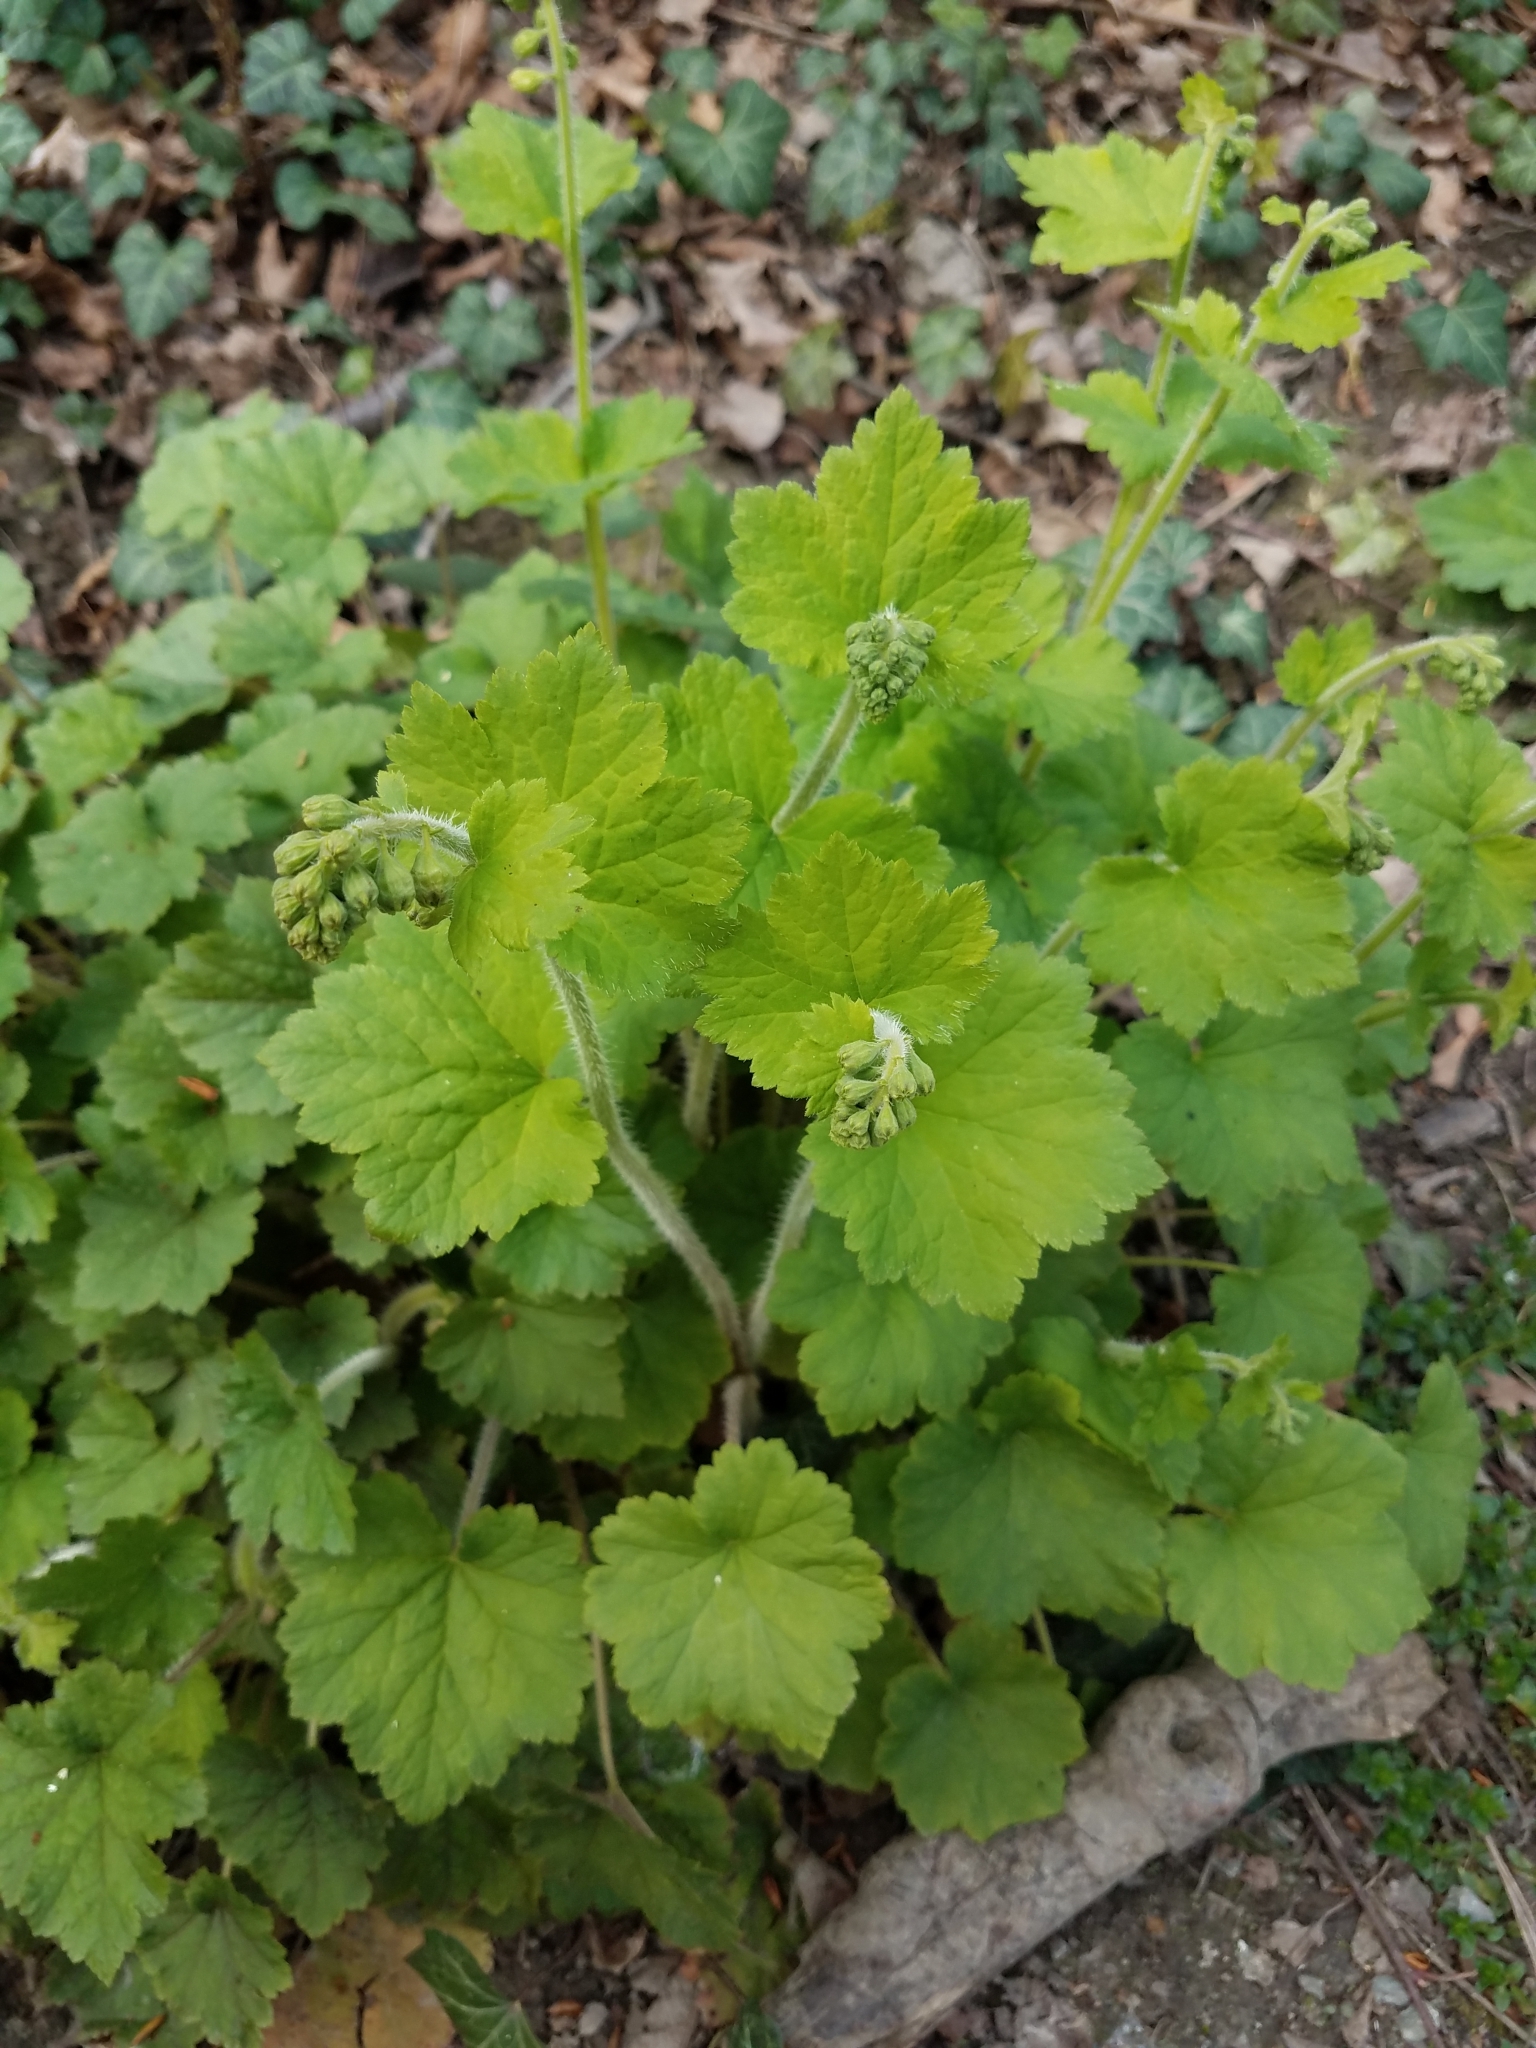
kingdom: Plantae
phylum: Tracheophyta
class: Magnoliopsida
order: Saxifragales
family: Saxifragaceae
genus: Tellima
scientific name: Tellima grandiflora
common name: Fringecups
